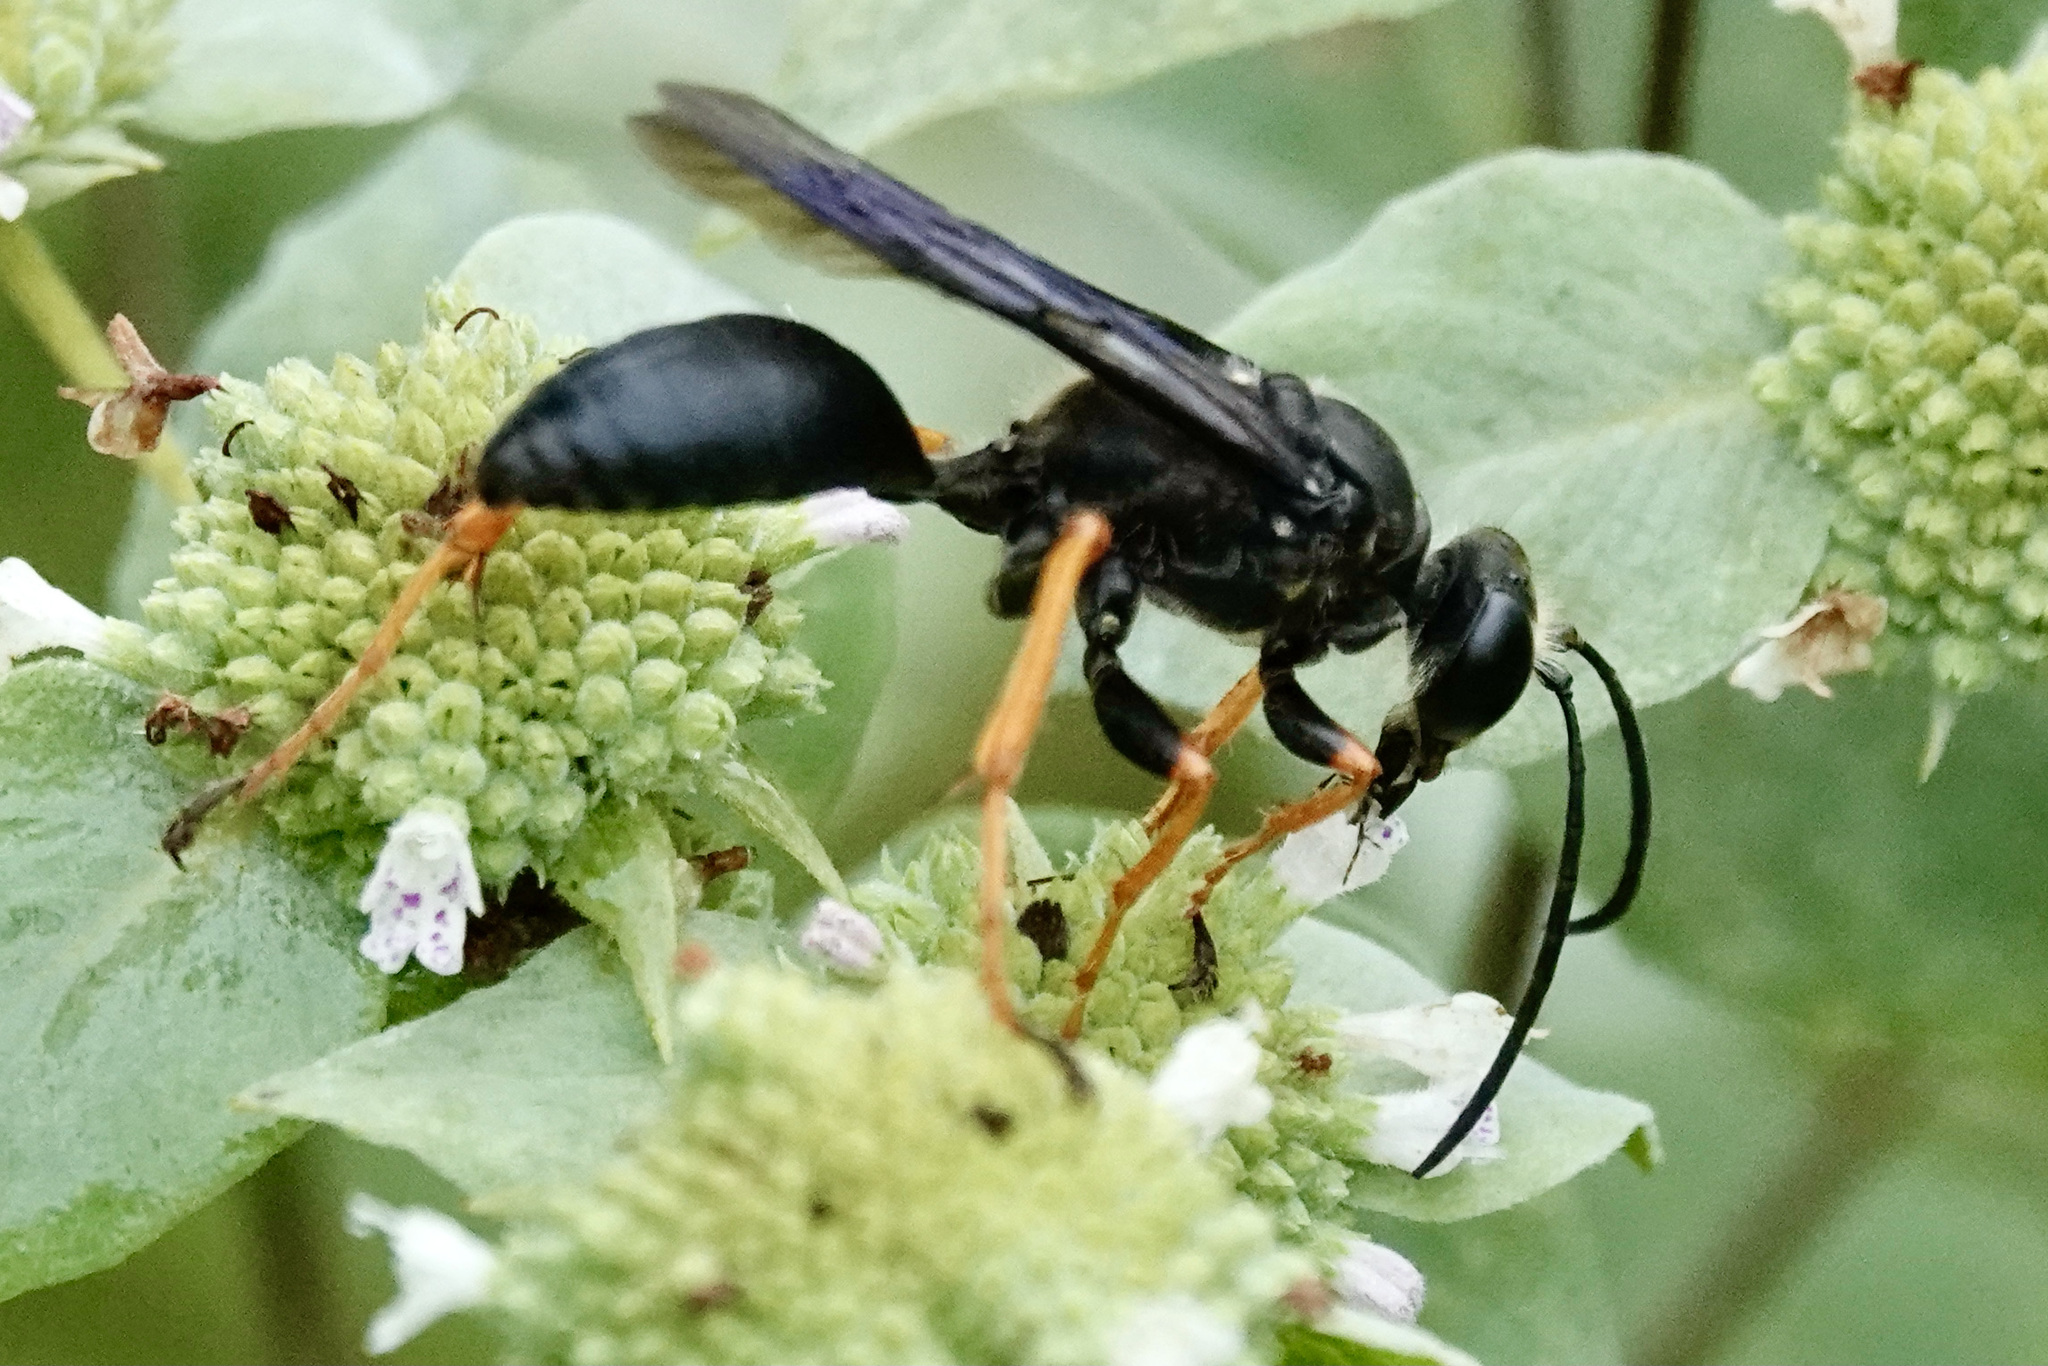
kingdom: Animalia
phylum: Arthropoda
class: Insecta
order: Hymenoptera
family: Sphecidae
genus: Sphex
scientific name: Sphex nudus
